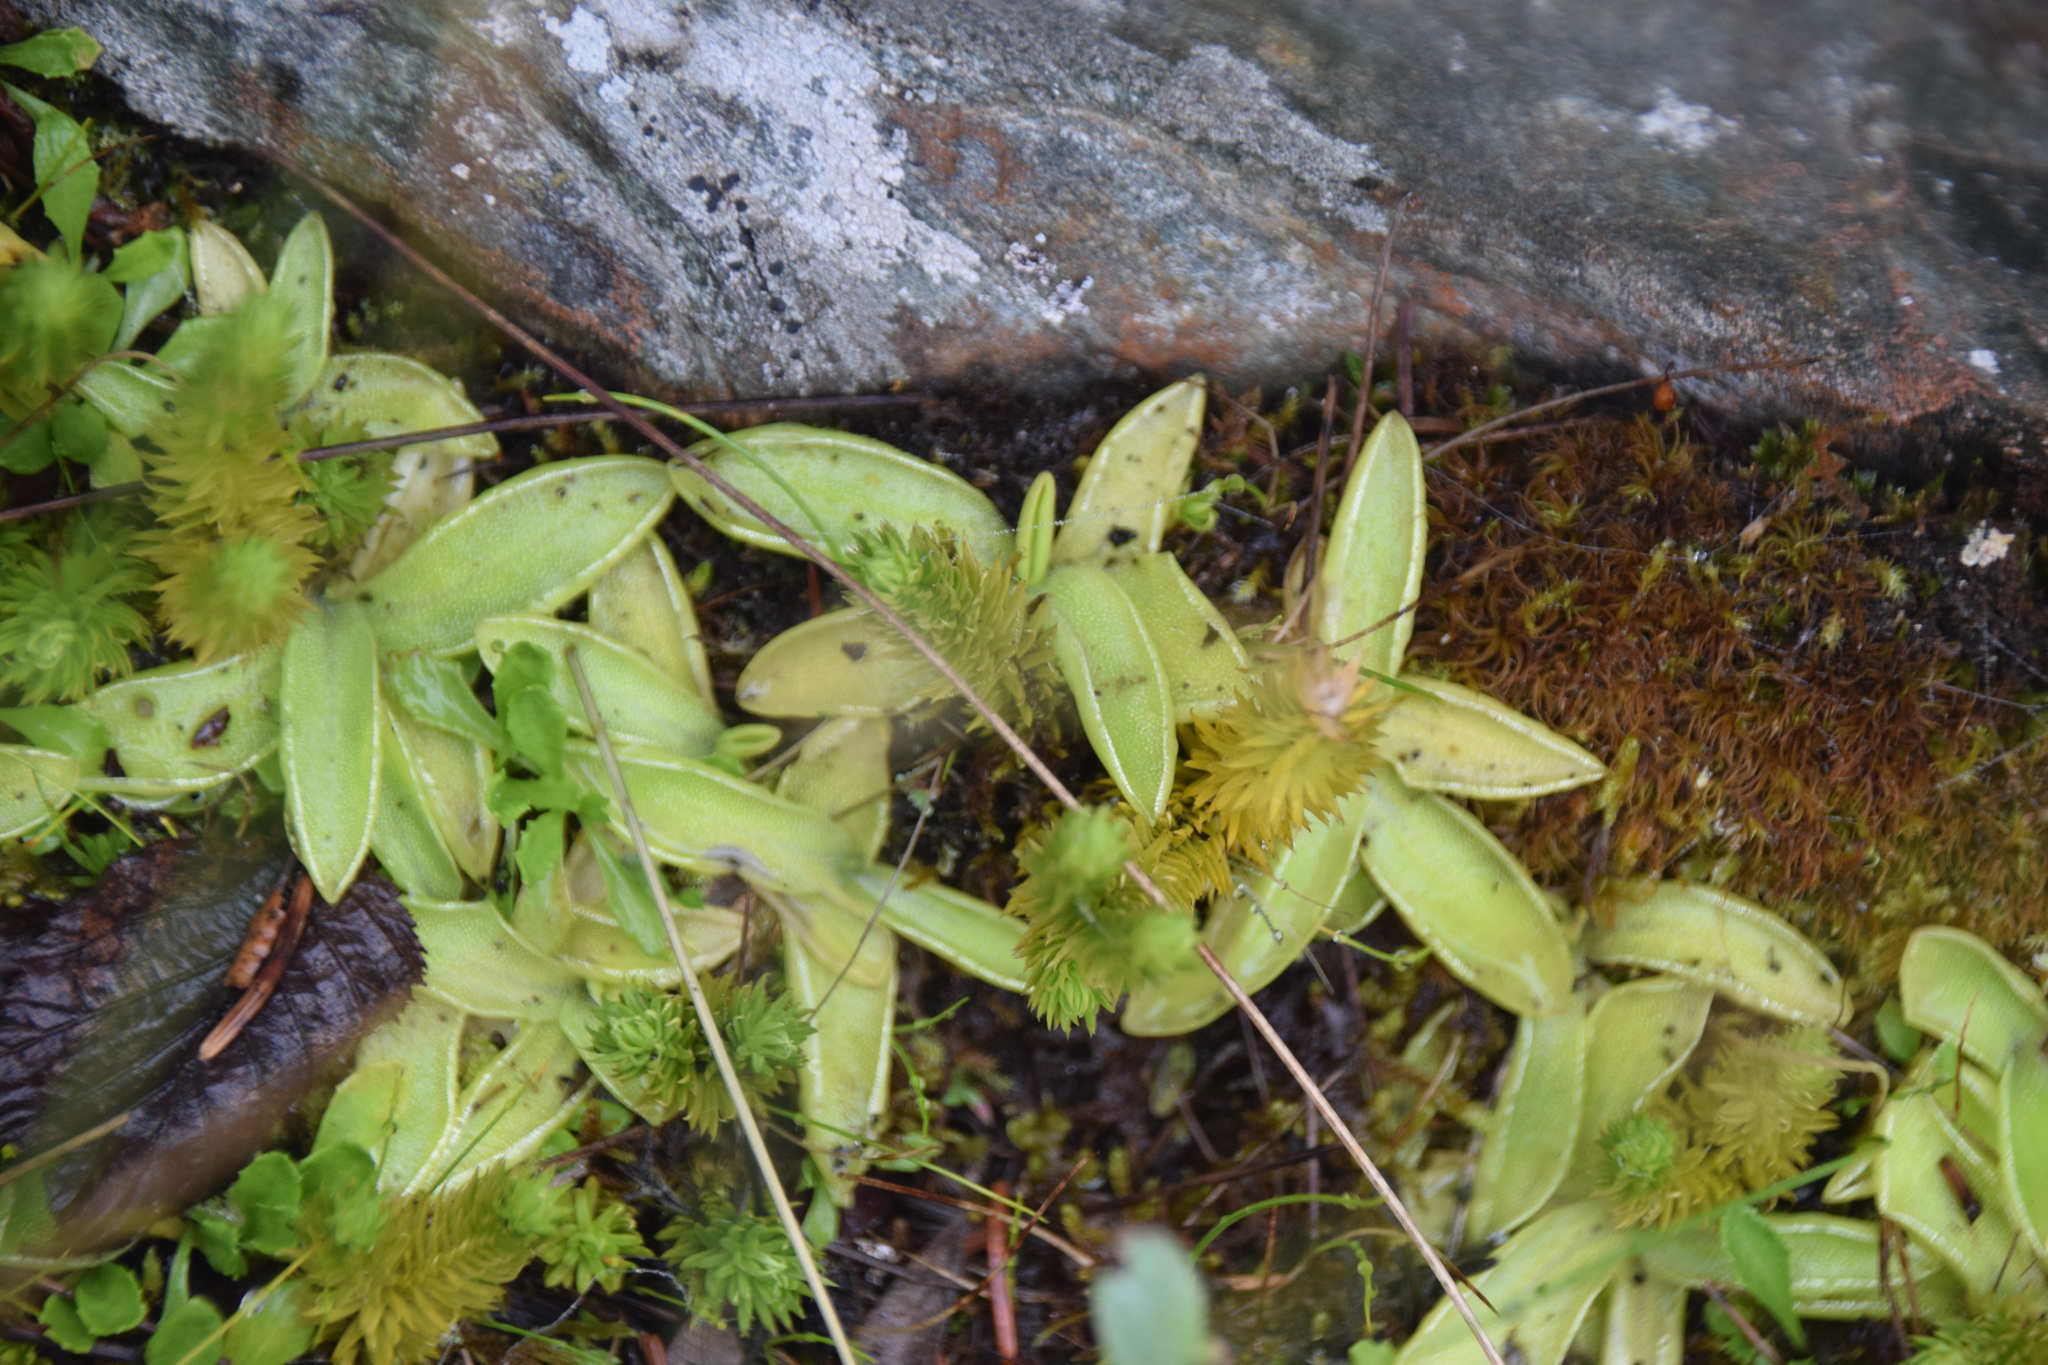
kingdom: Plantae
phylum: Tracheophyta
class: Magnoliopsida
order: Lamiales
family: Lentibulariaceae
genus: Pinguicula
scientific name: Pinguicula vulgaris
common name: Common butterwort
